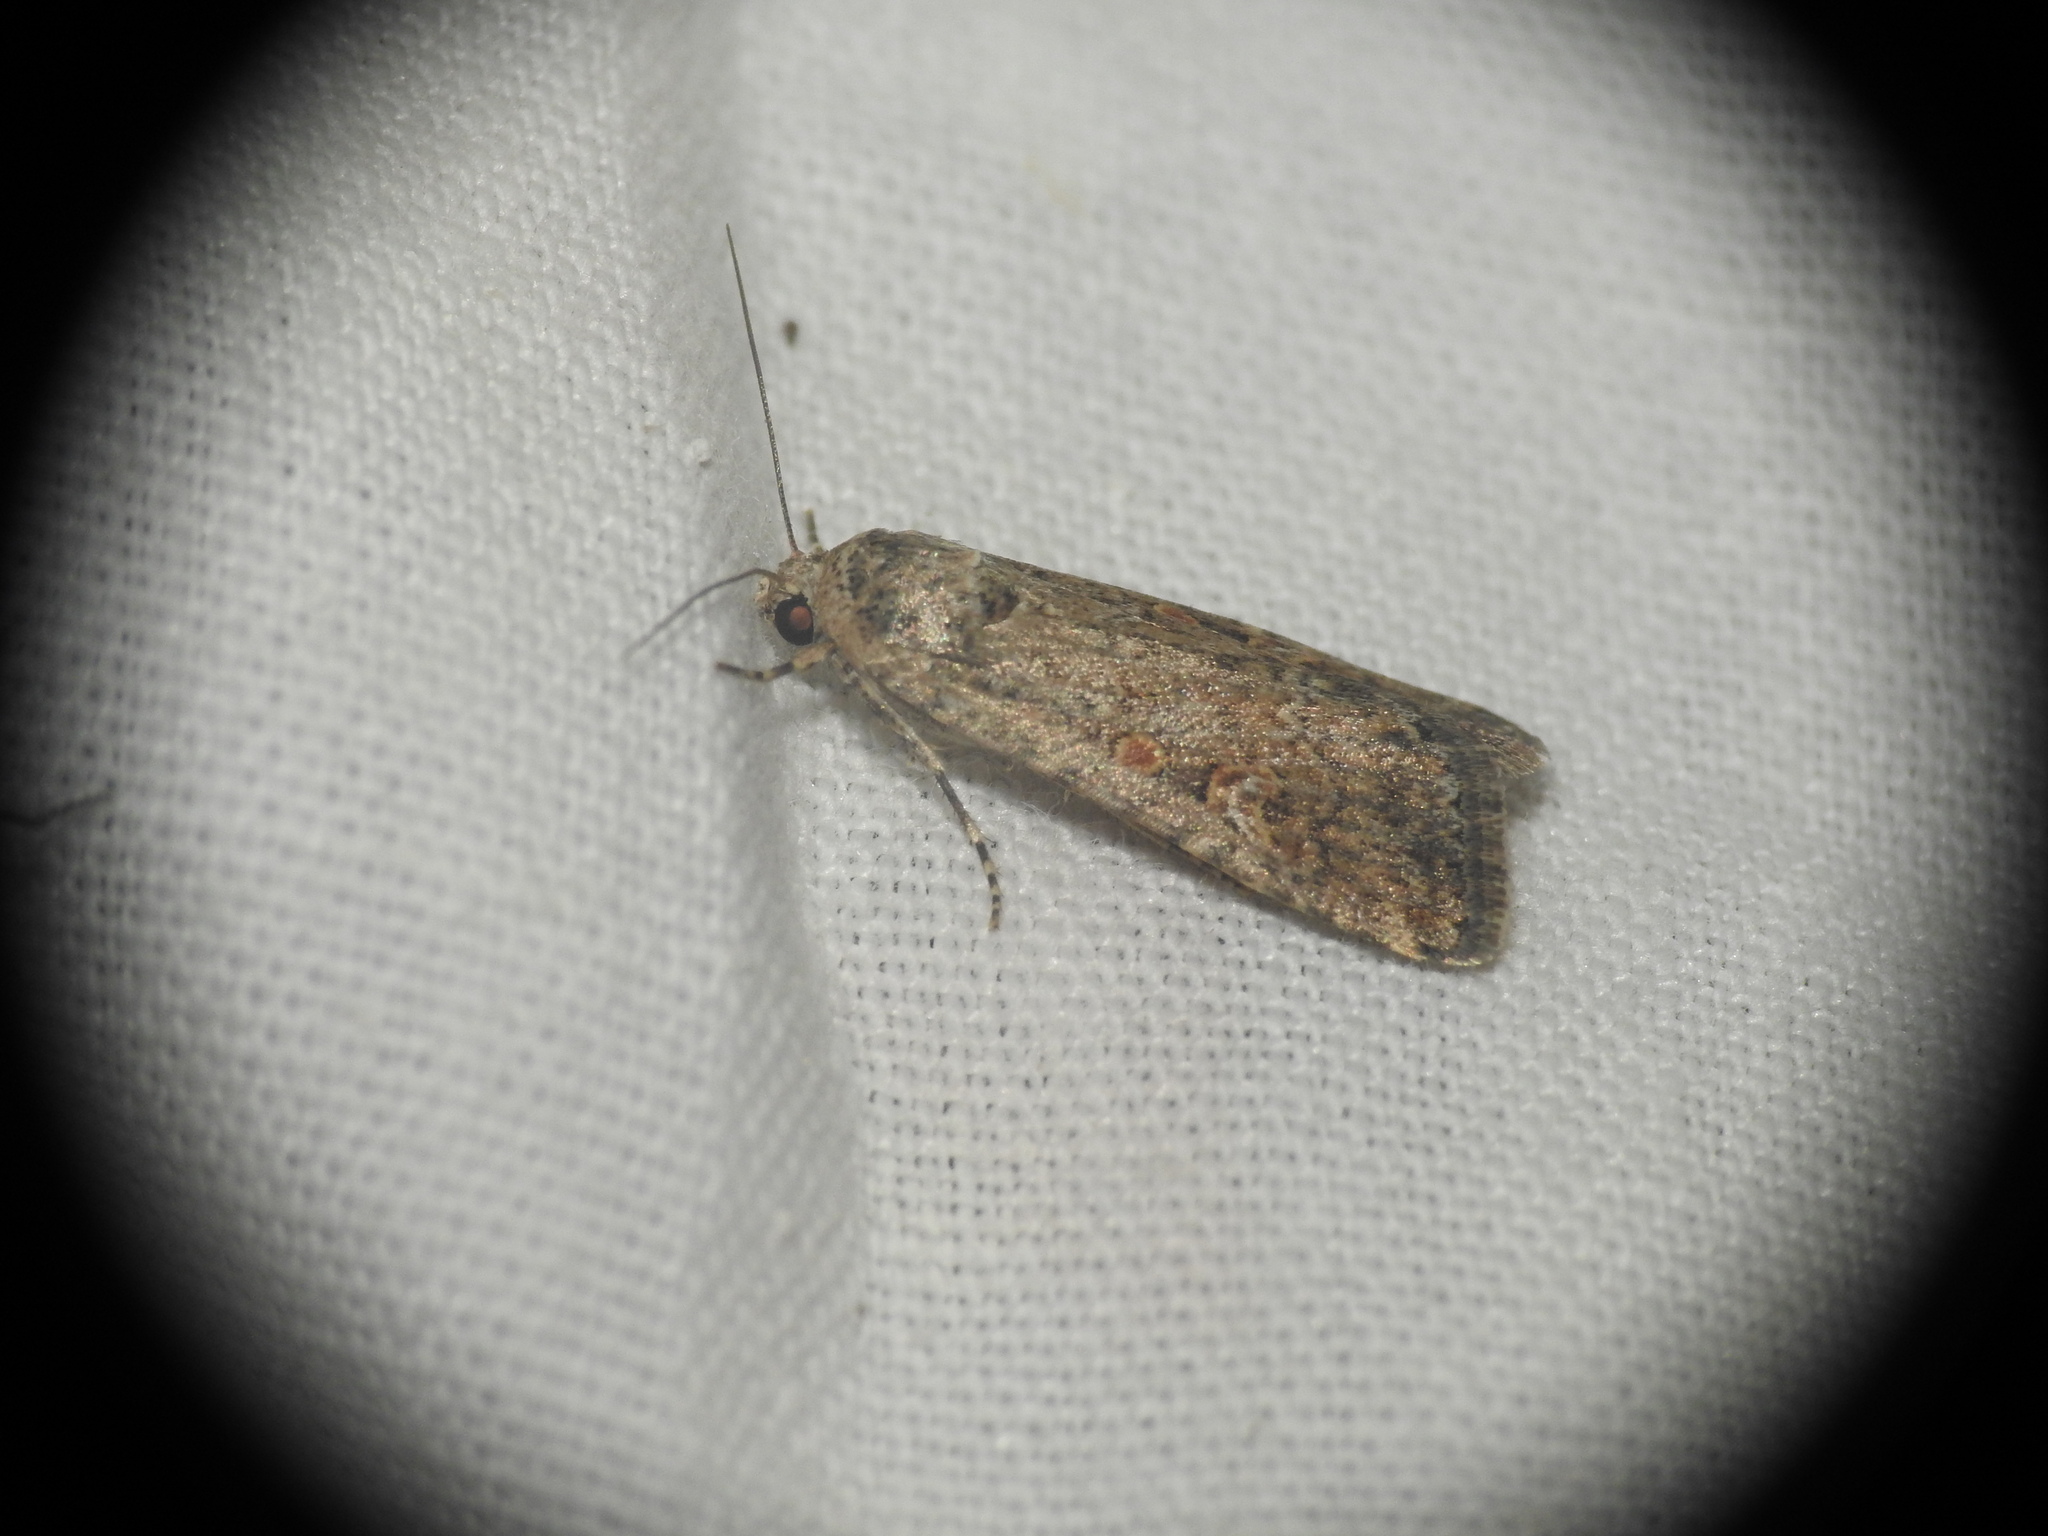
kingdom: Animalia
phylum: Arthropoda
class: Insecta
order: Lepidoptera
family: Noctuidae
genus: Spodoptera
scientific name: Spodoptera exigua
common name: Beet armyworm
